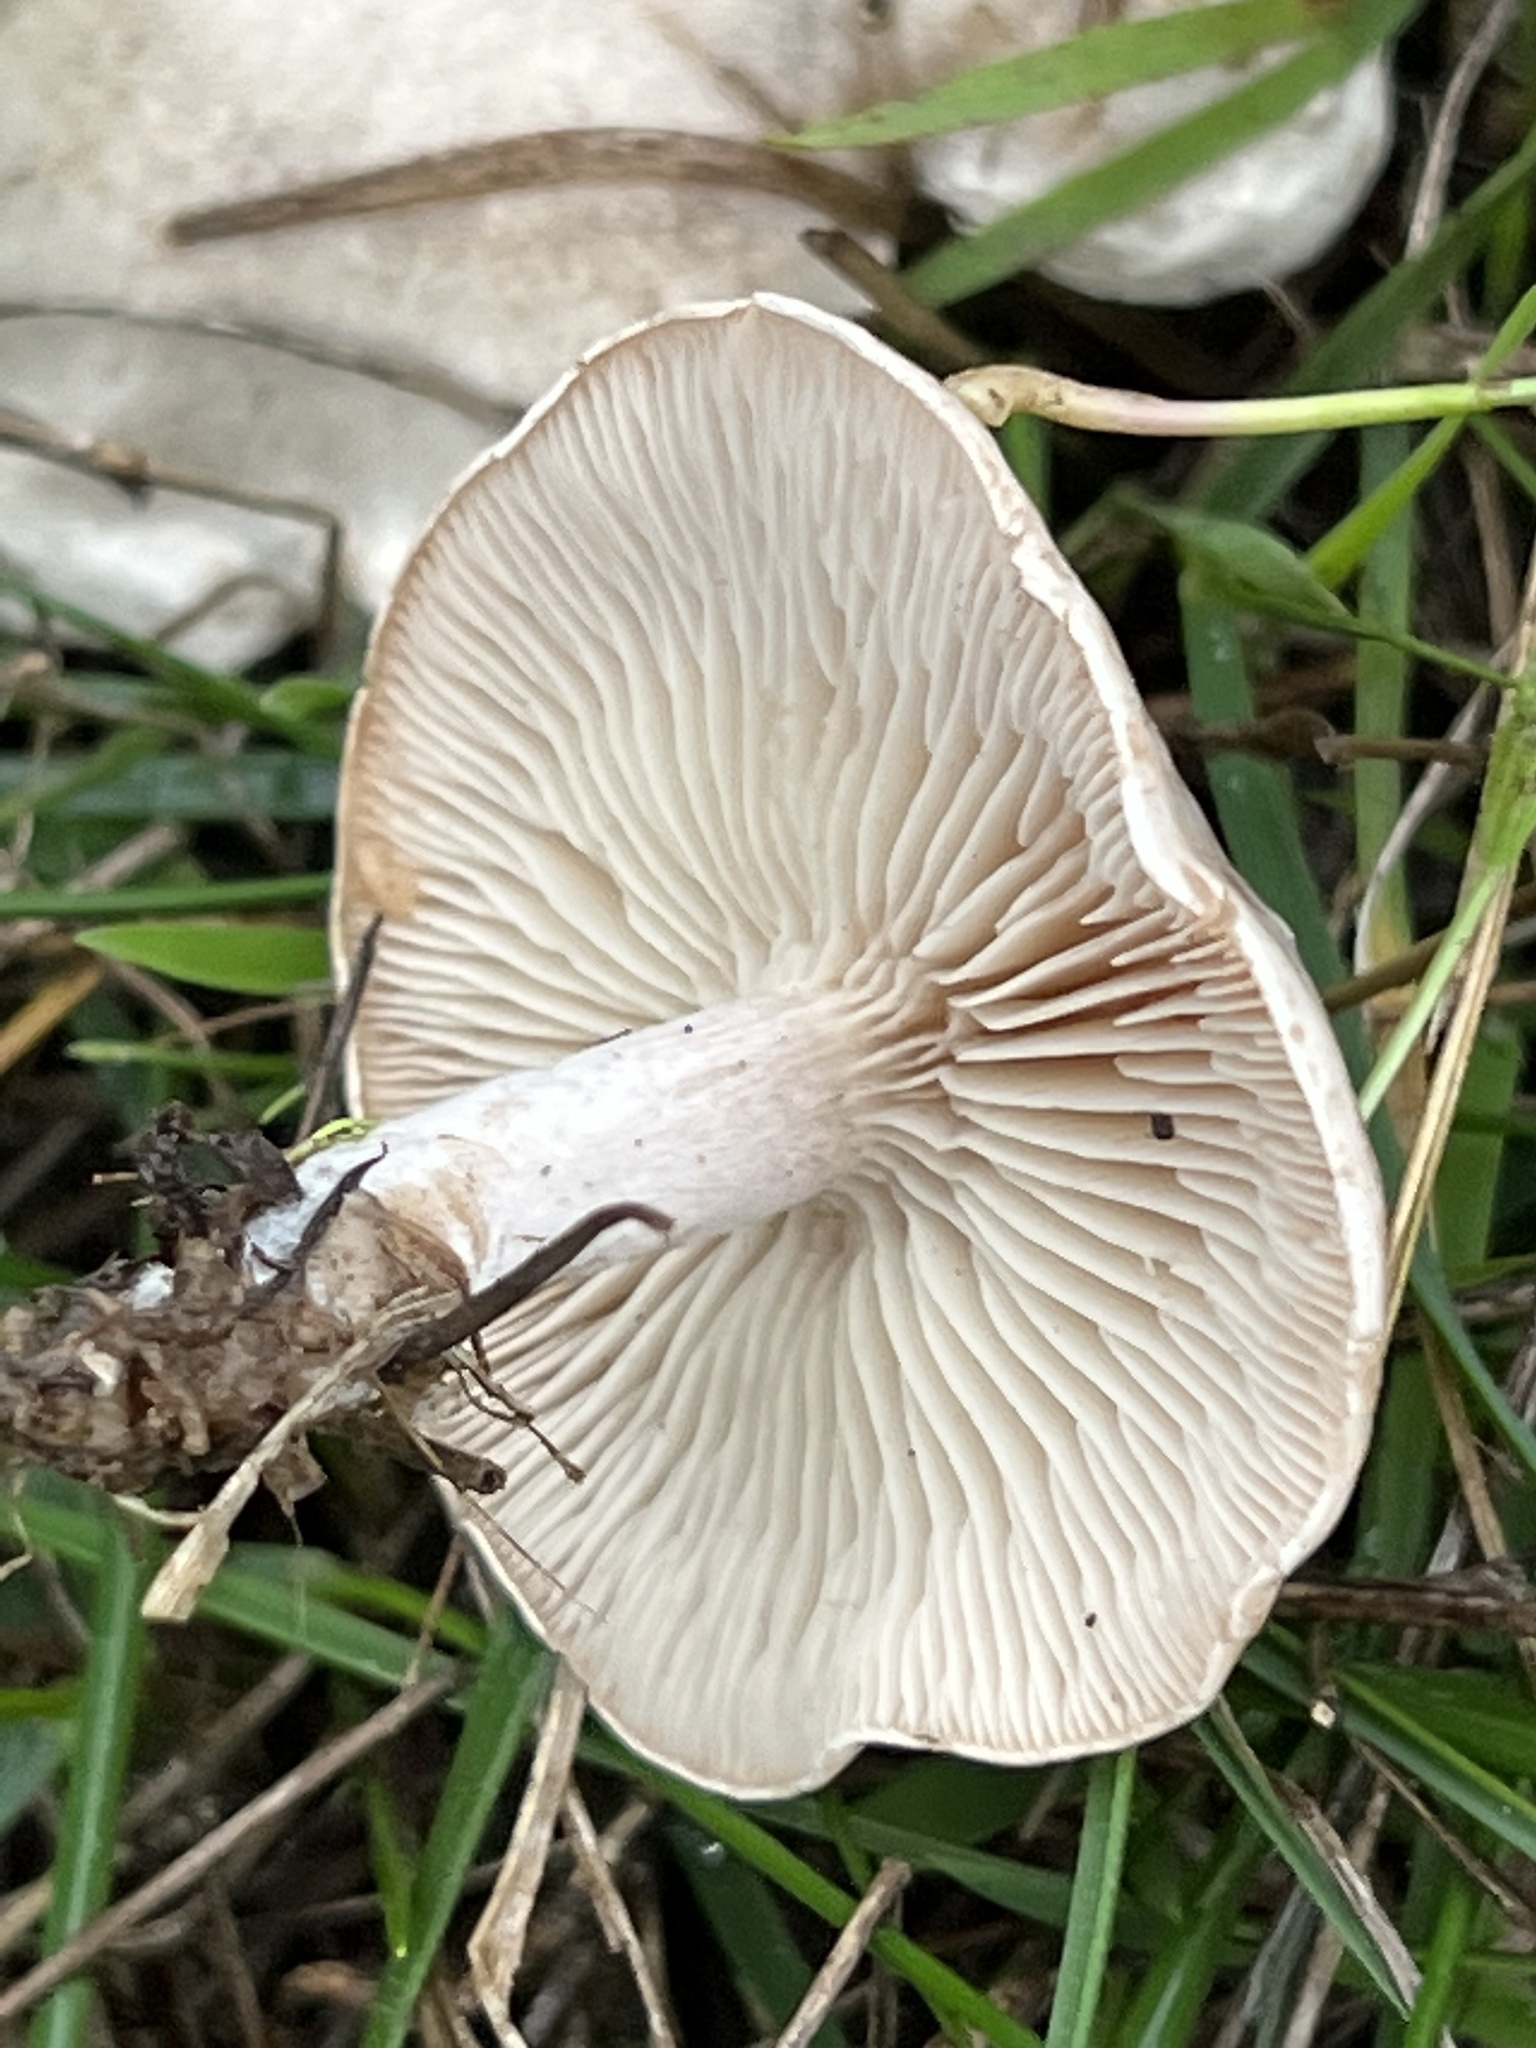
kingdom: Fungi
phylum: Basidiomycota
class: Agaricomycetes
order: Agaricales
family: Tricholomataceae
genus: Collybia
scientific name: Collybia
